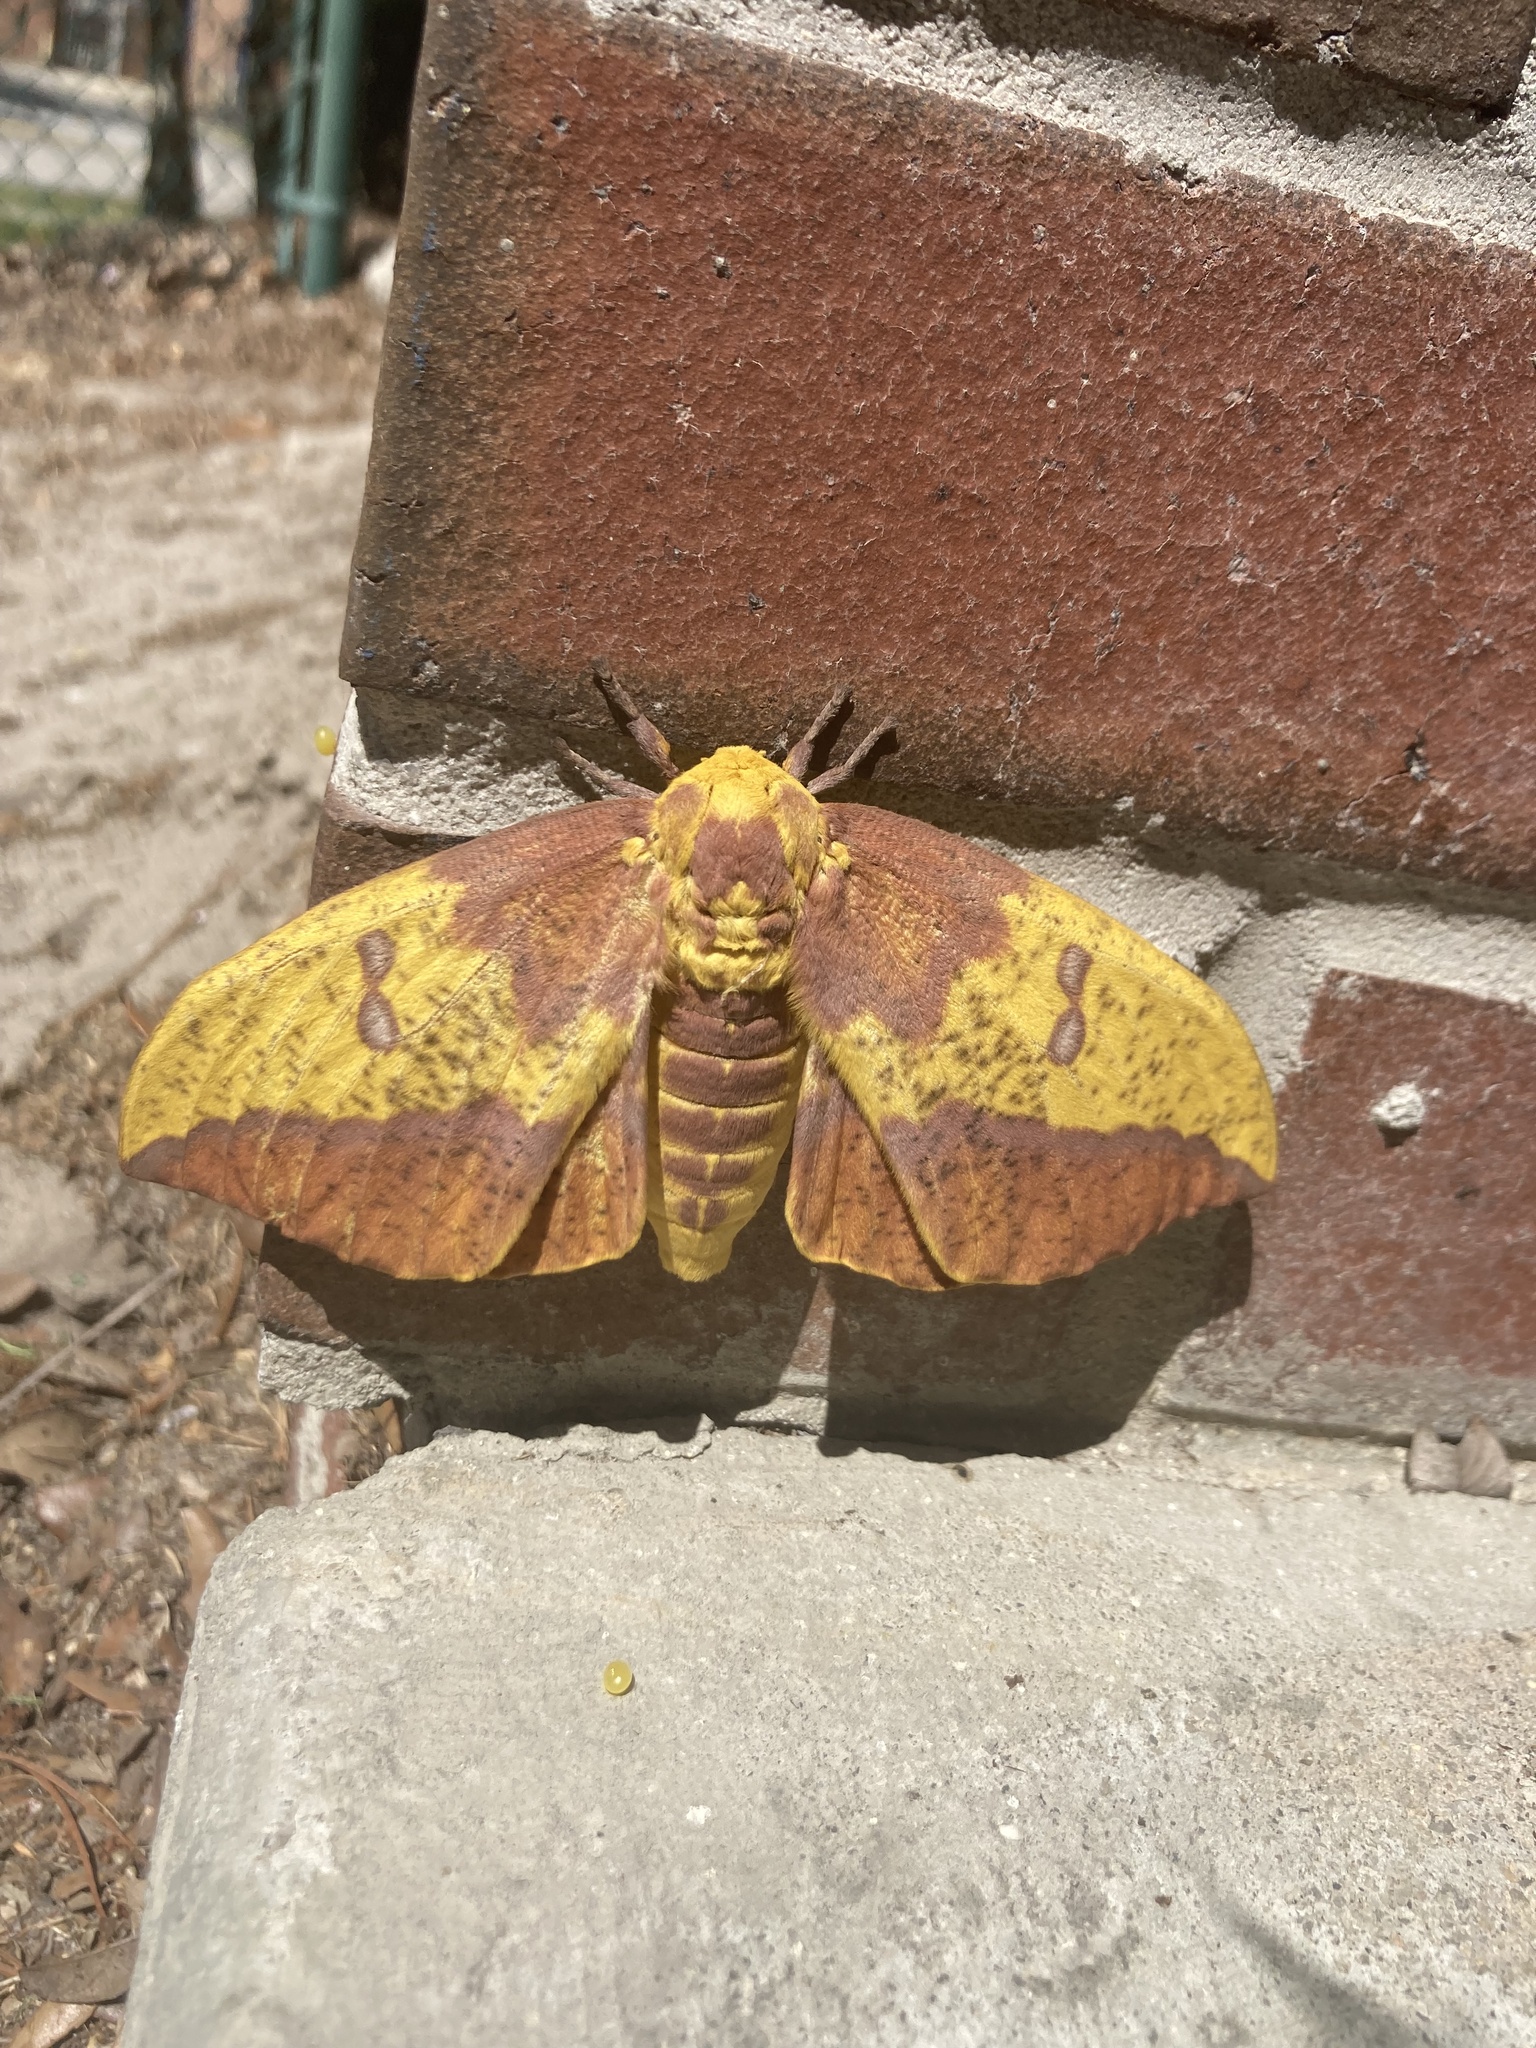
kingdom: Animalia
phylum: Arthropoda
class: Insecta
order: Lepidoptera
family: Saturniidae
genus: Eacles
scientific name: Eacles imperialis
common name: Imperial moth
